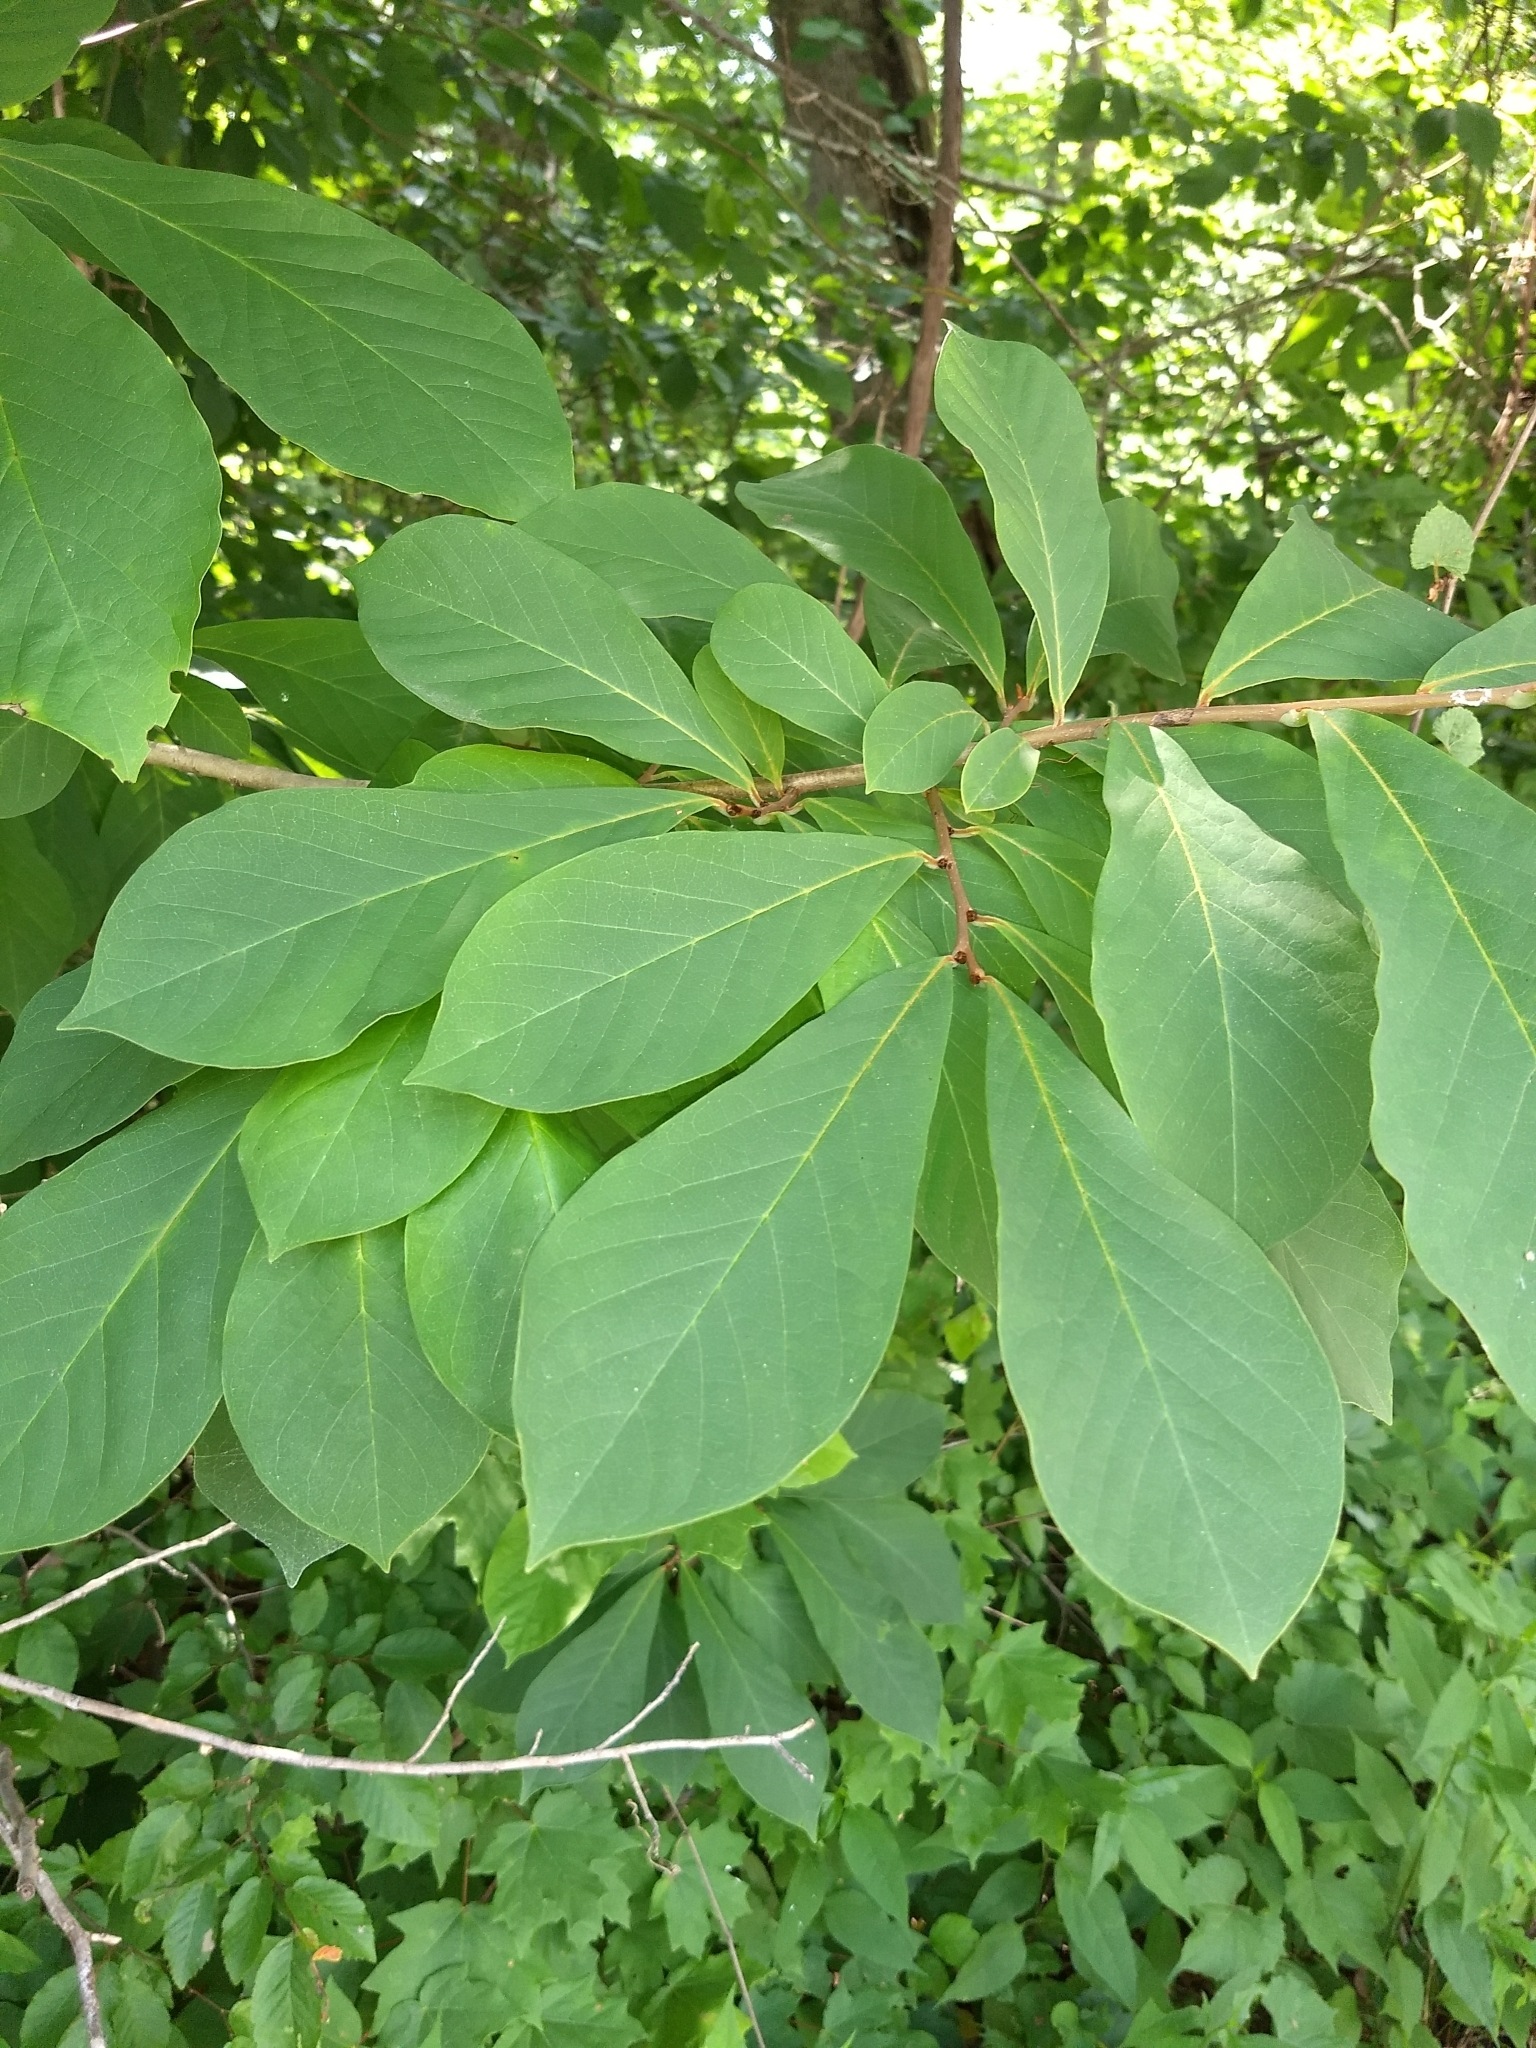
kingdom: Plantae
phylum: Tracheophyta
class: Magnoliopsida
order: Magnoliales
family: Annonaceae
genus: Asimina
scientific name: Asimina triloba
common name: Dog-banana
